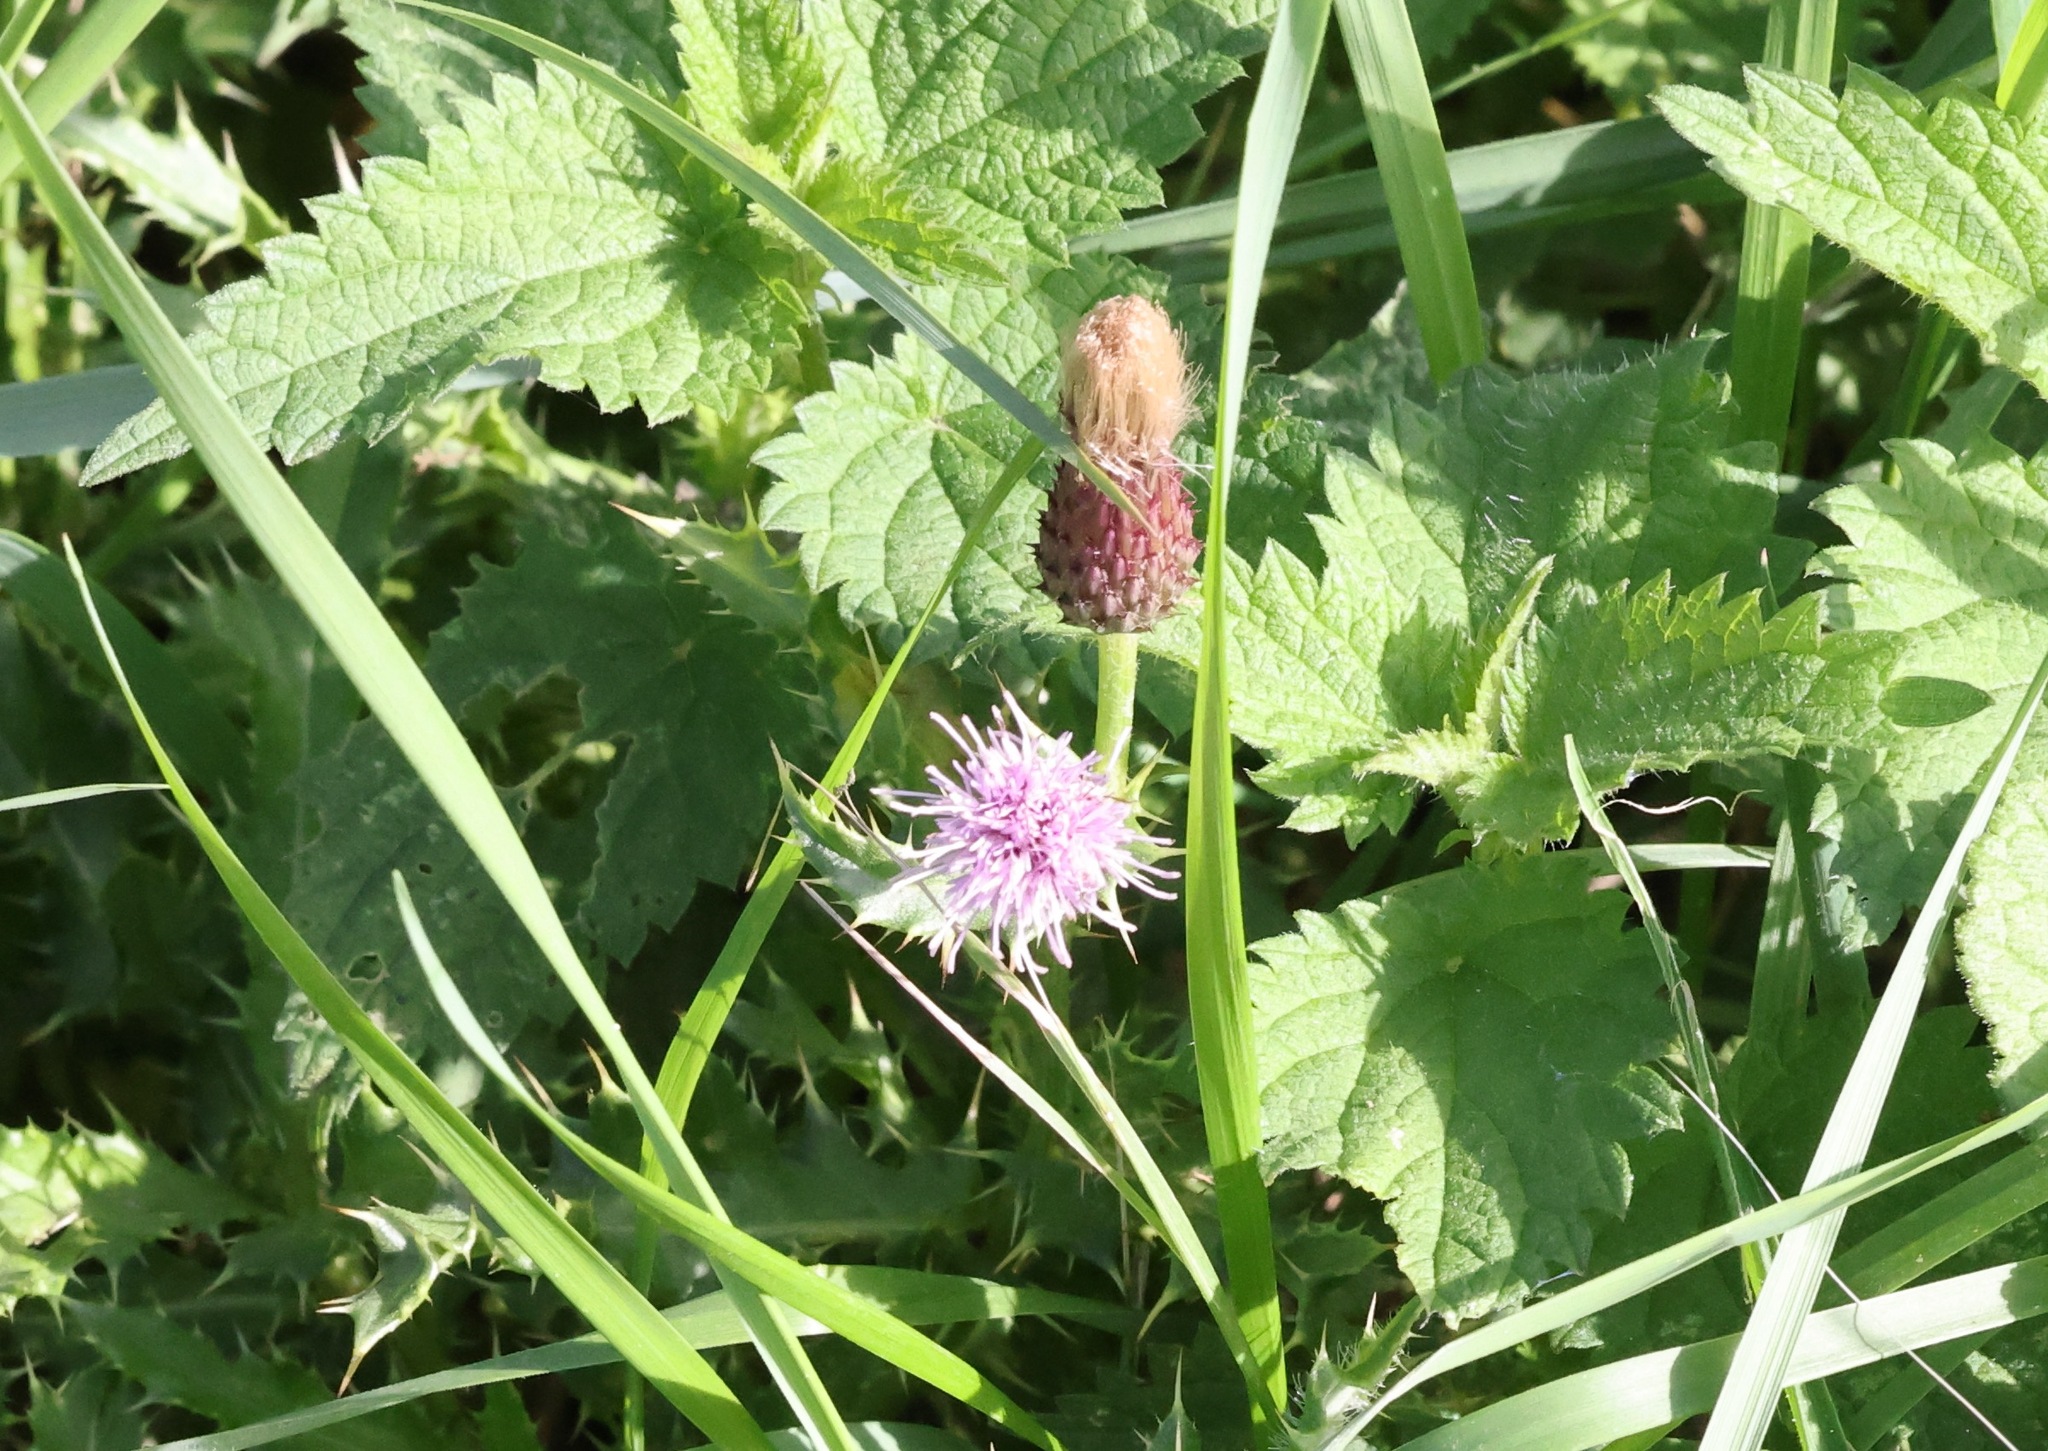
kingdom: Plantae
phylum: Tracheophyta
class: Magnoliopsida
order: Asterales
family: Asteraceae
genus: Cirsium
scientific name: Cirsium arvense
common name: Creeping thistle
